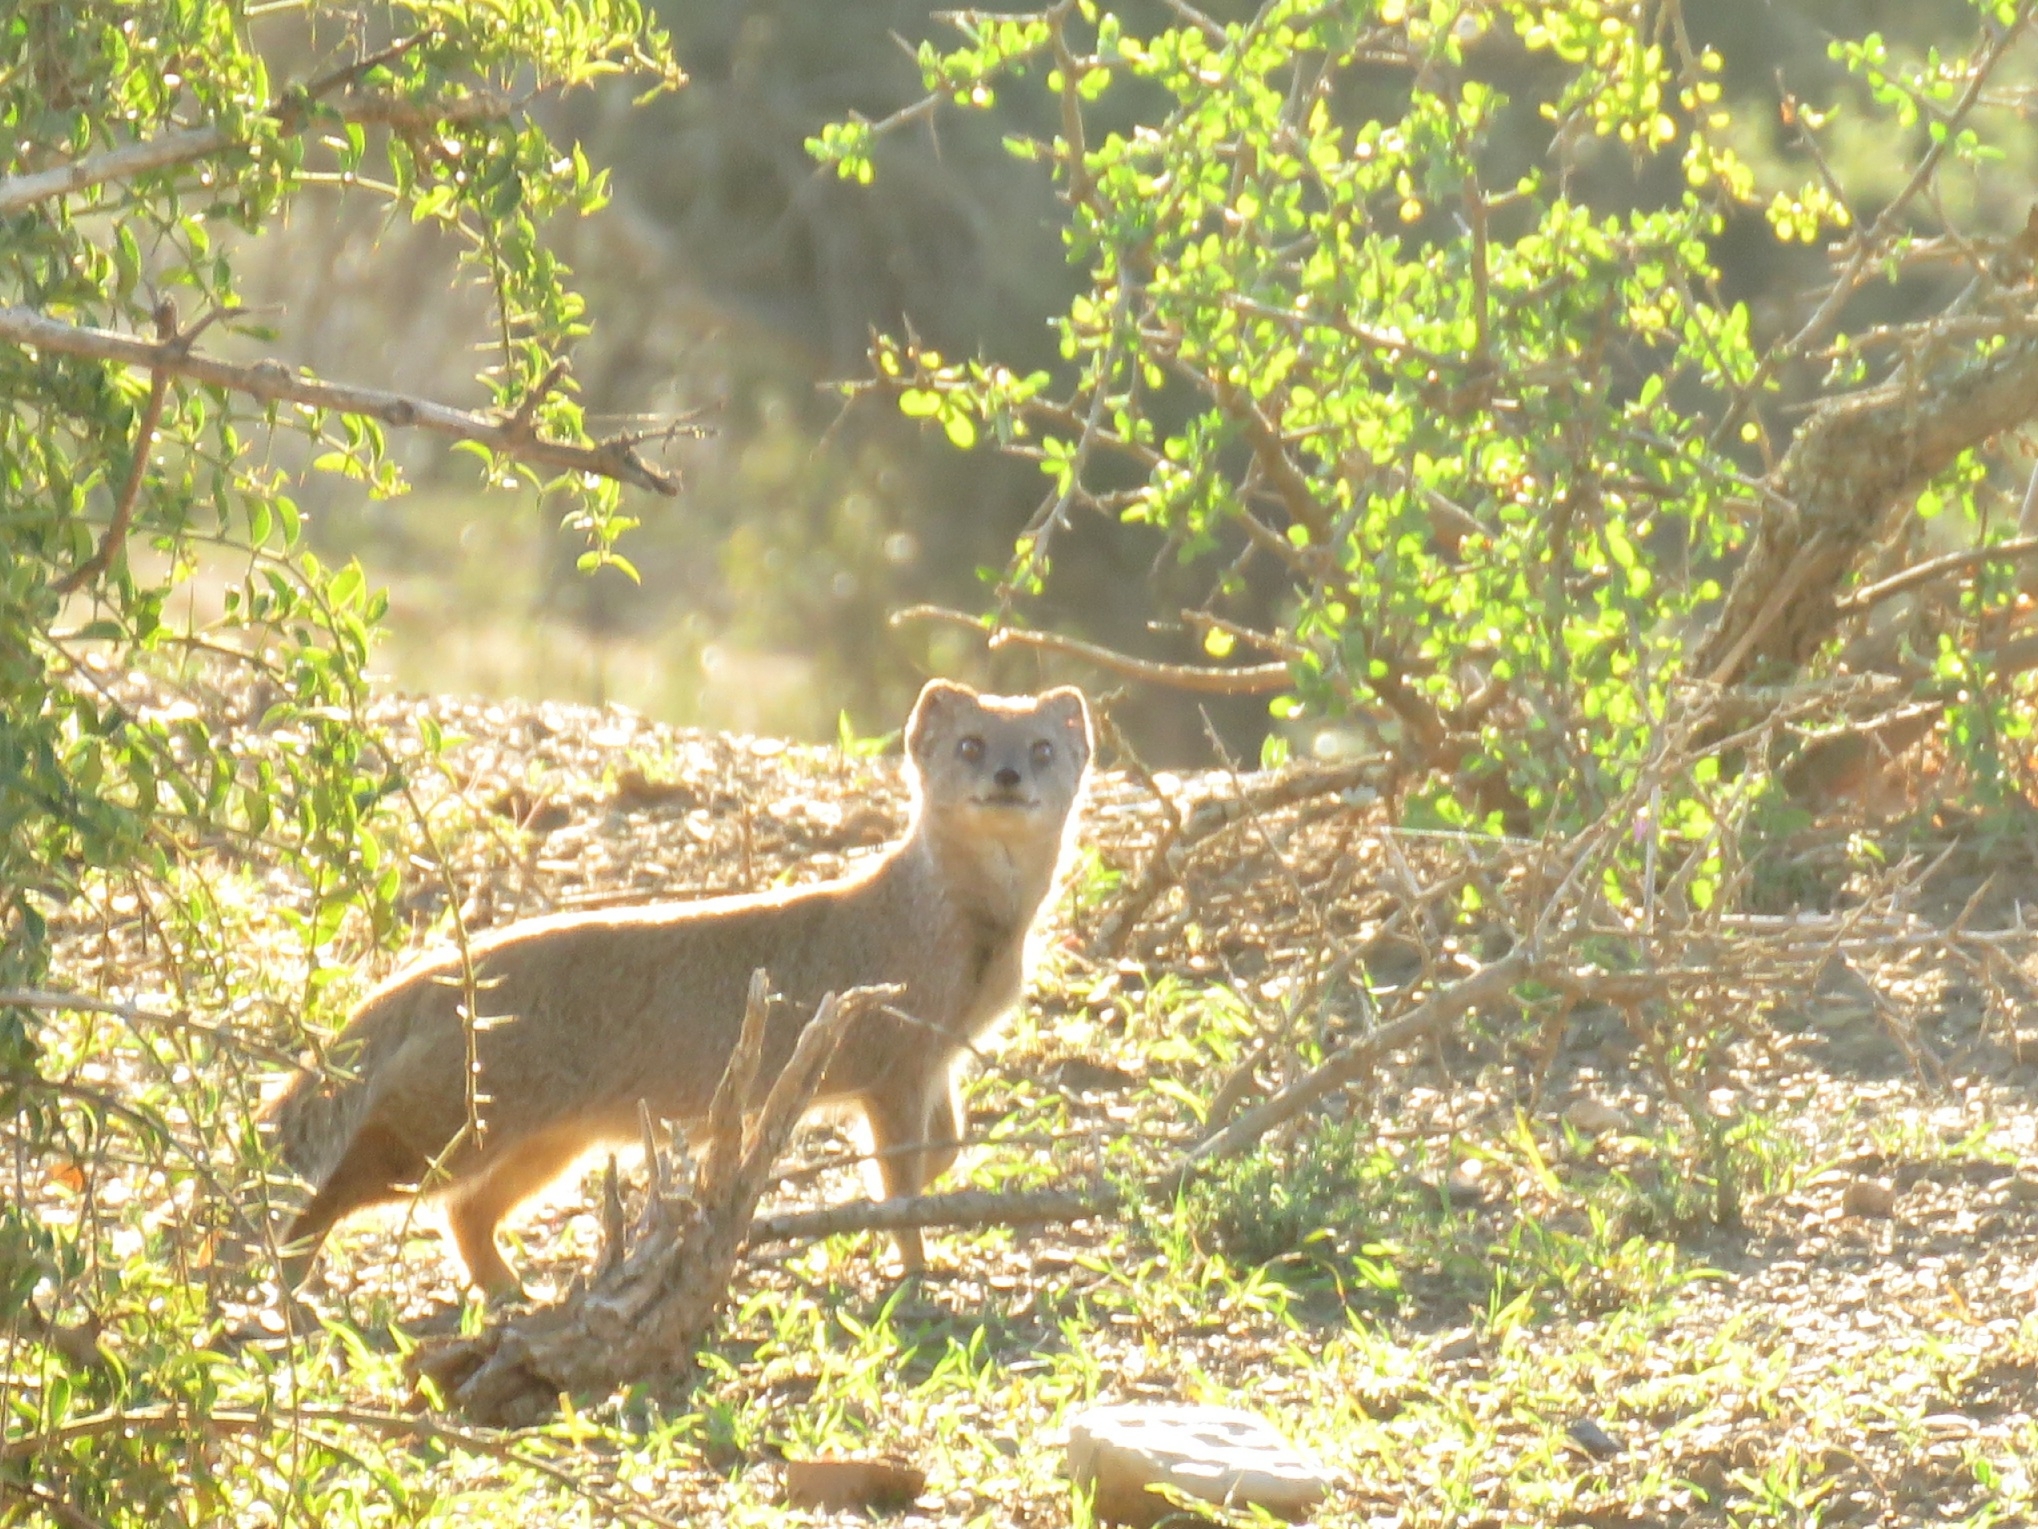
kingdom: Animalia
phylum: Chordata
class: Mammalia
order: Carnivora
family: Herpestidae
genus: Cynictis
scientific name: Cynictis penicillata
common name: Yellow mongoose
